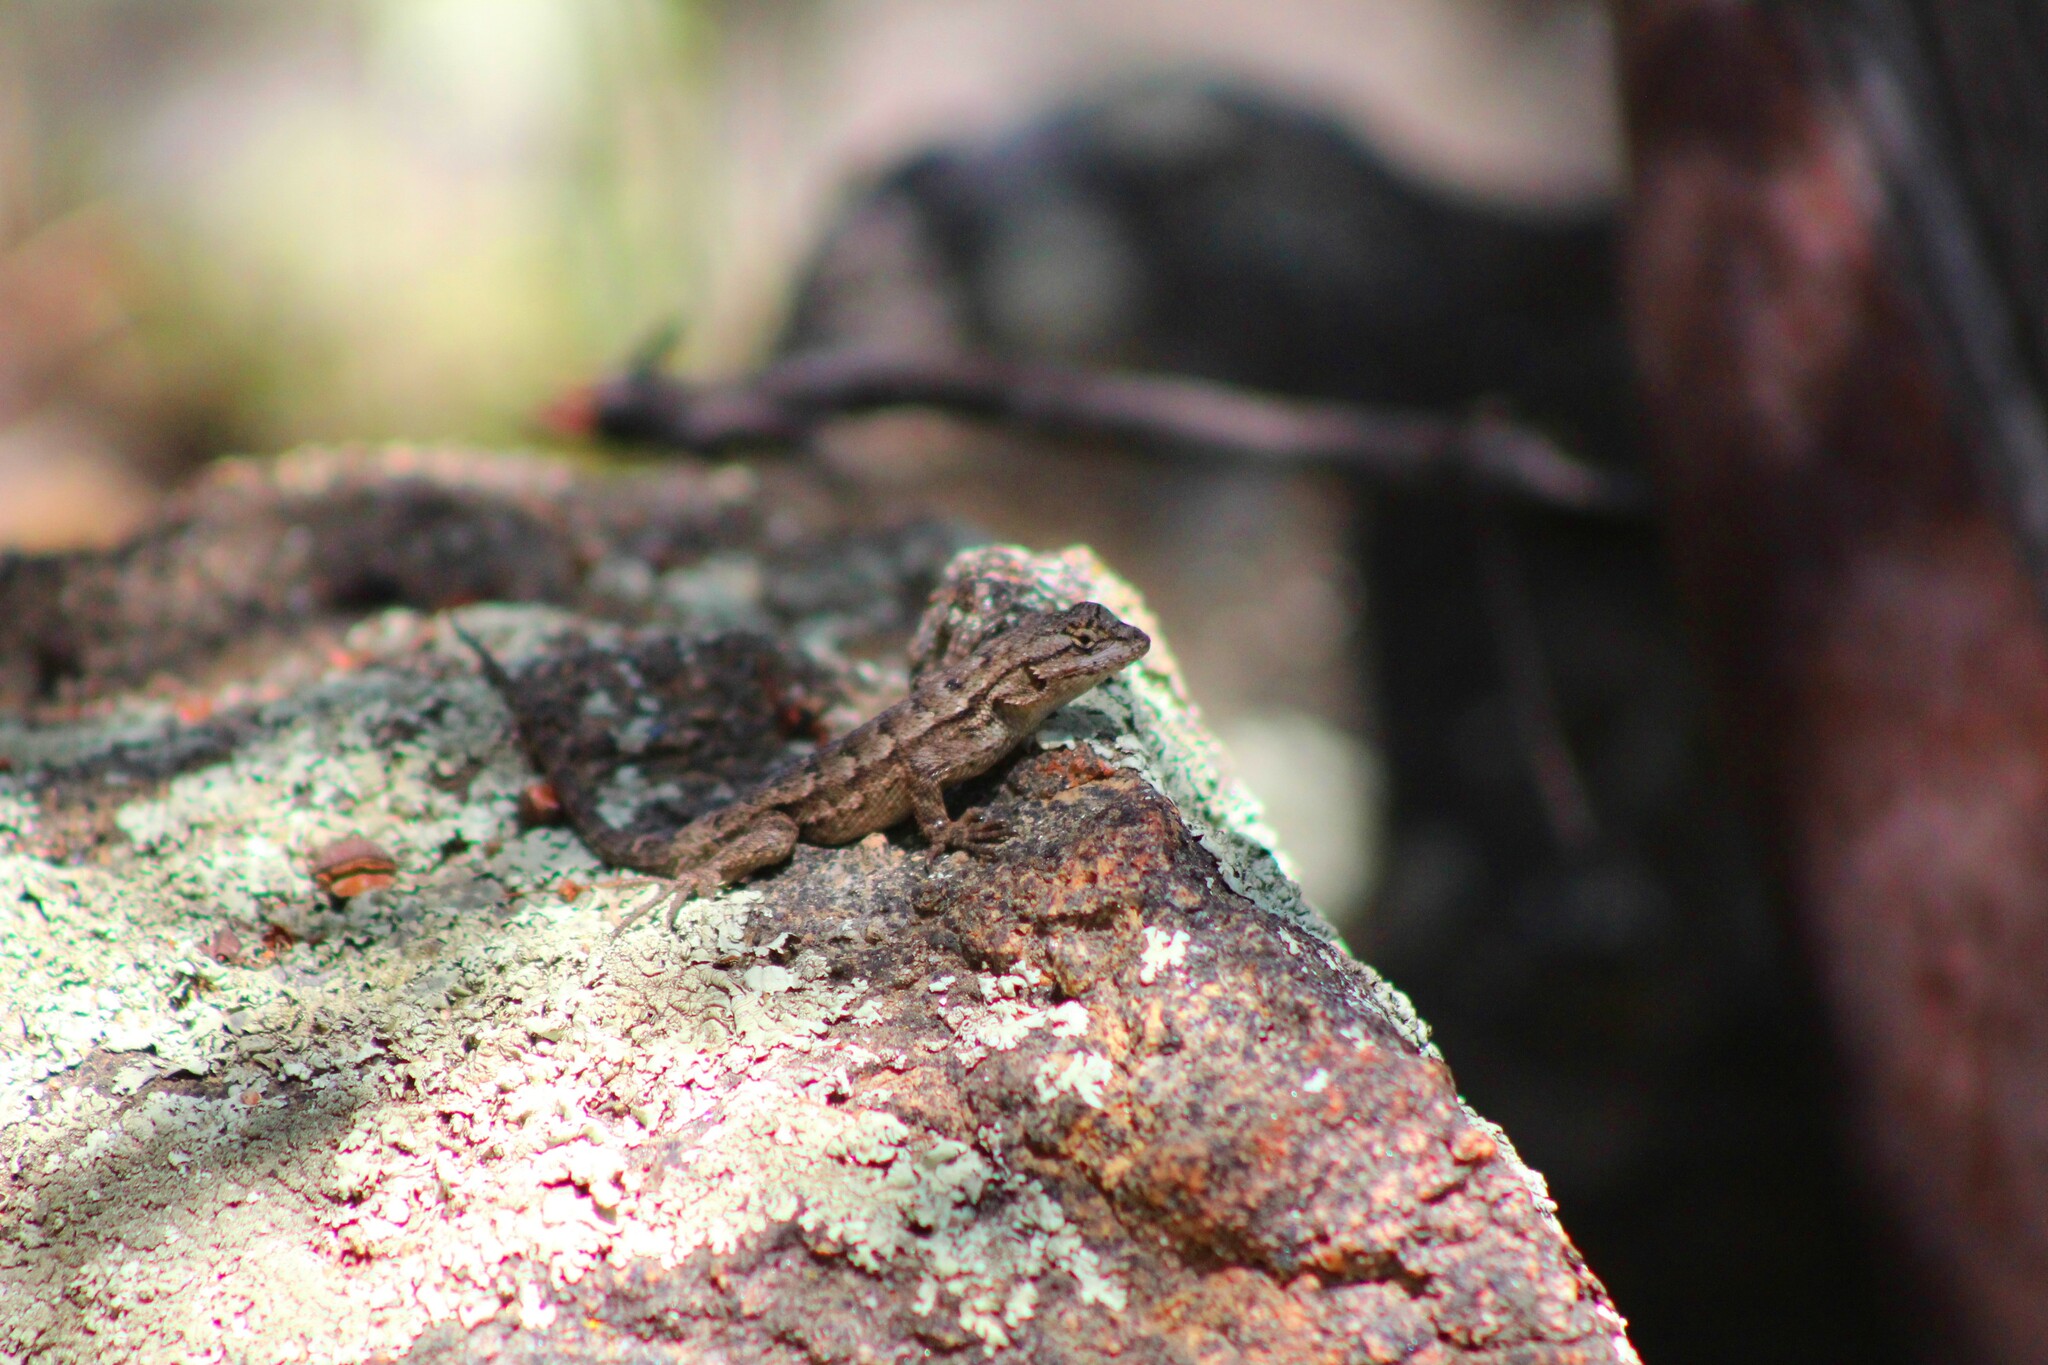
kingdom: Animalia
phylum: Chordata
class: Squamata
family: Phrynosomatidae
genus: Sceloporus
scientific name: Sceloporus occidentalis
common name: Western fence lizard
